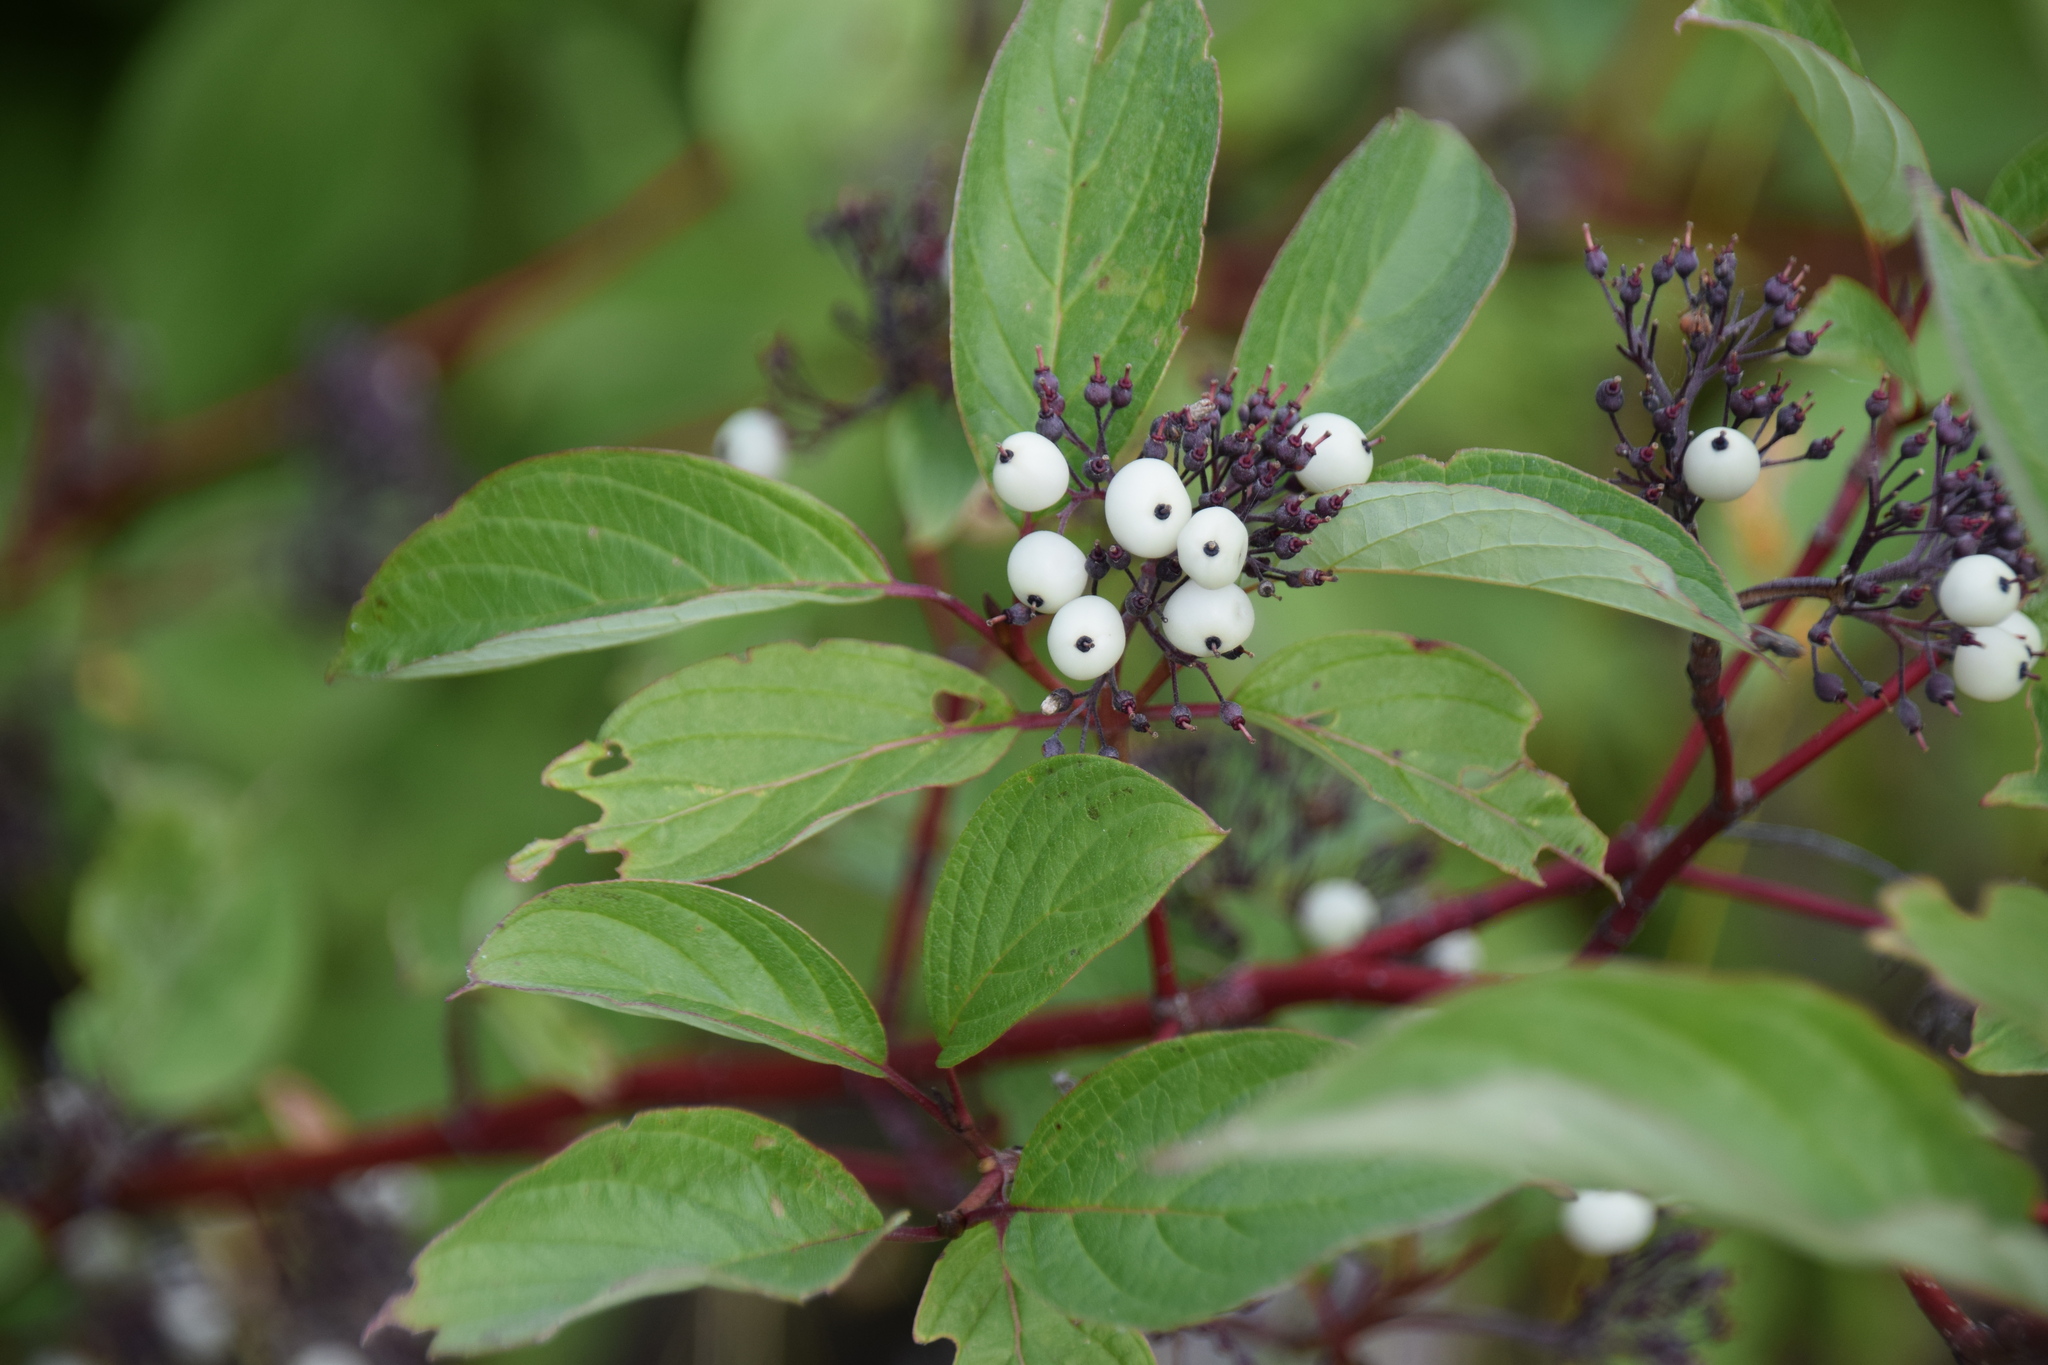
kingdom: Plantae
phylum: Tracheophyta
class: Magnoliopsida
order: Cornales
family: Cornaceae
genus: Cornus
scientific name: Cornus sericea
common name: Red-osier dogwood
